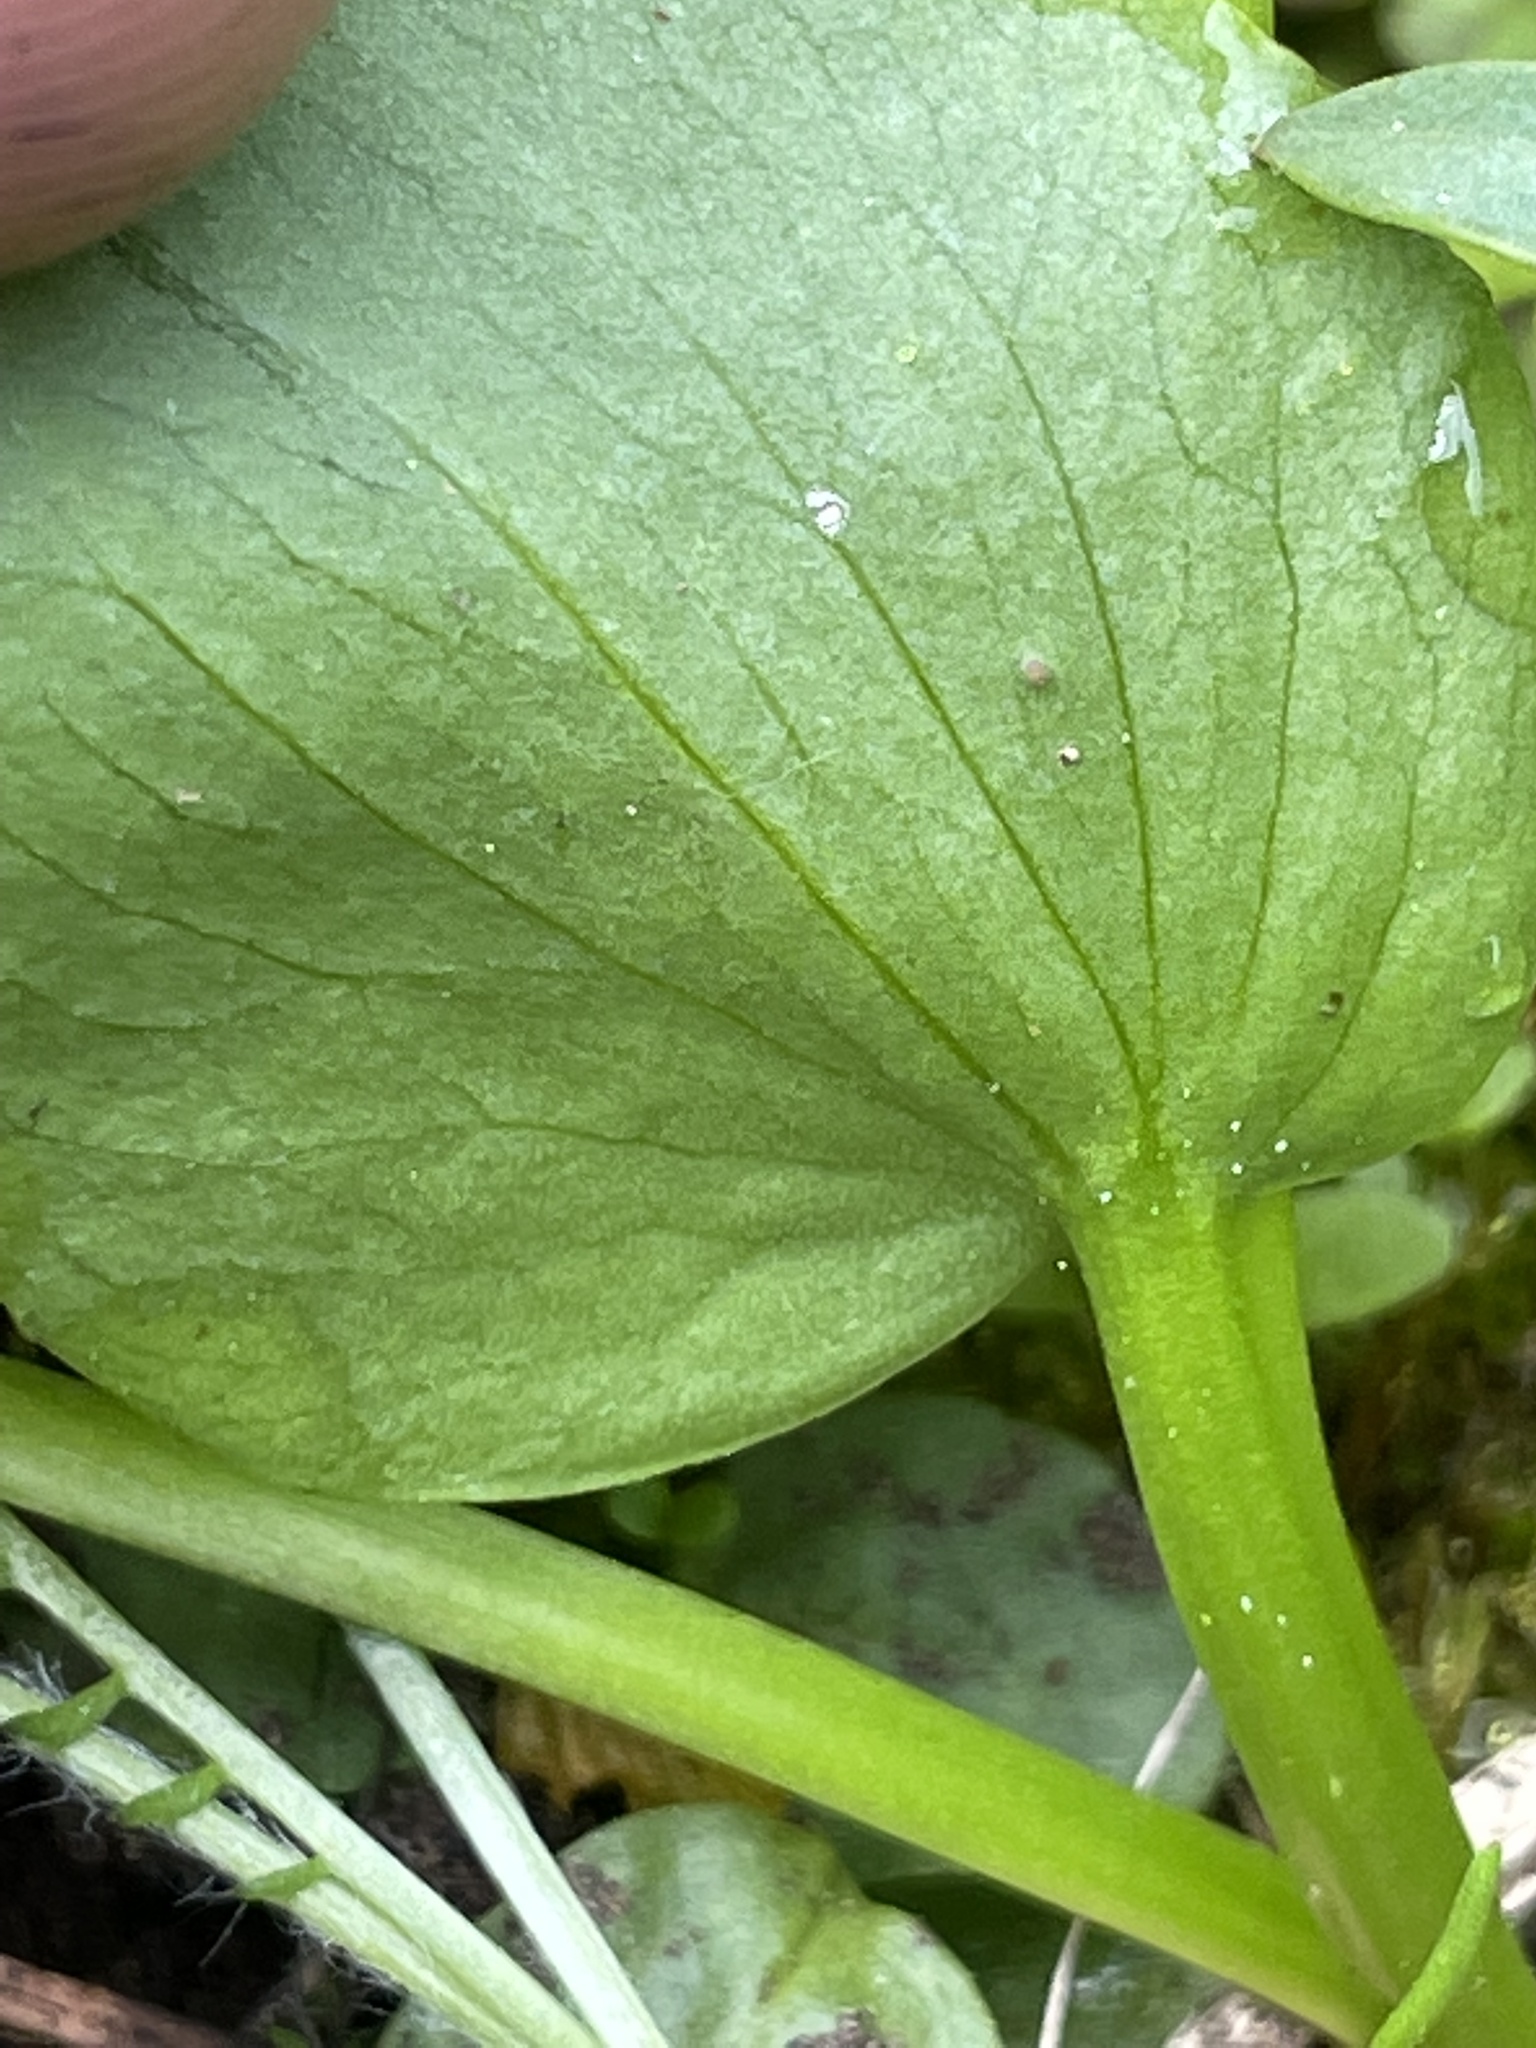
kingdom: Plantae
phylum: Tracheophyta
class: Magnoliopsida
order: Ranunculales
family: Ranunculaceae
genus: Ranunculus
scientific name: Ranunculus populago
